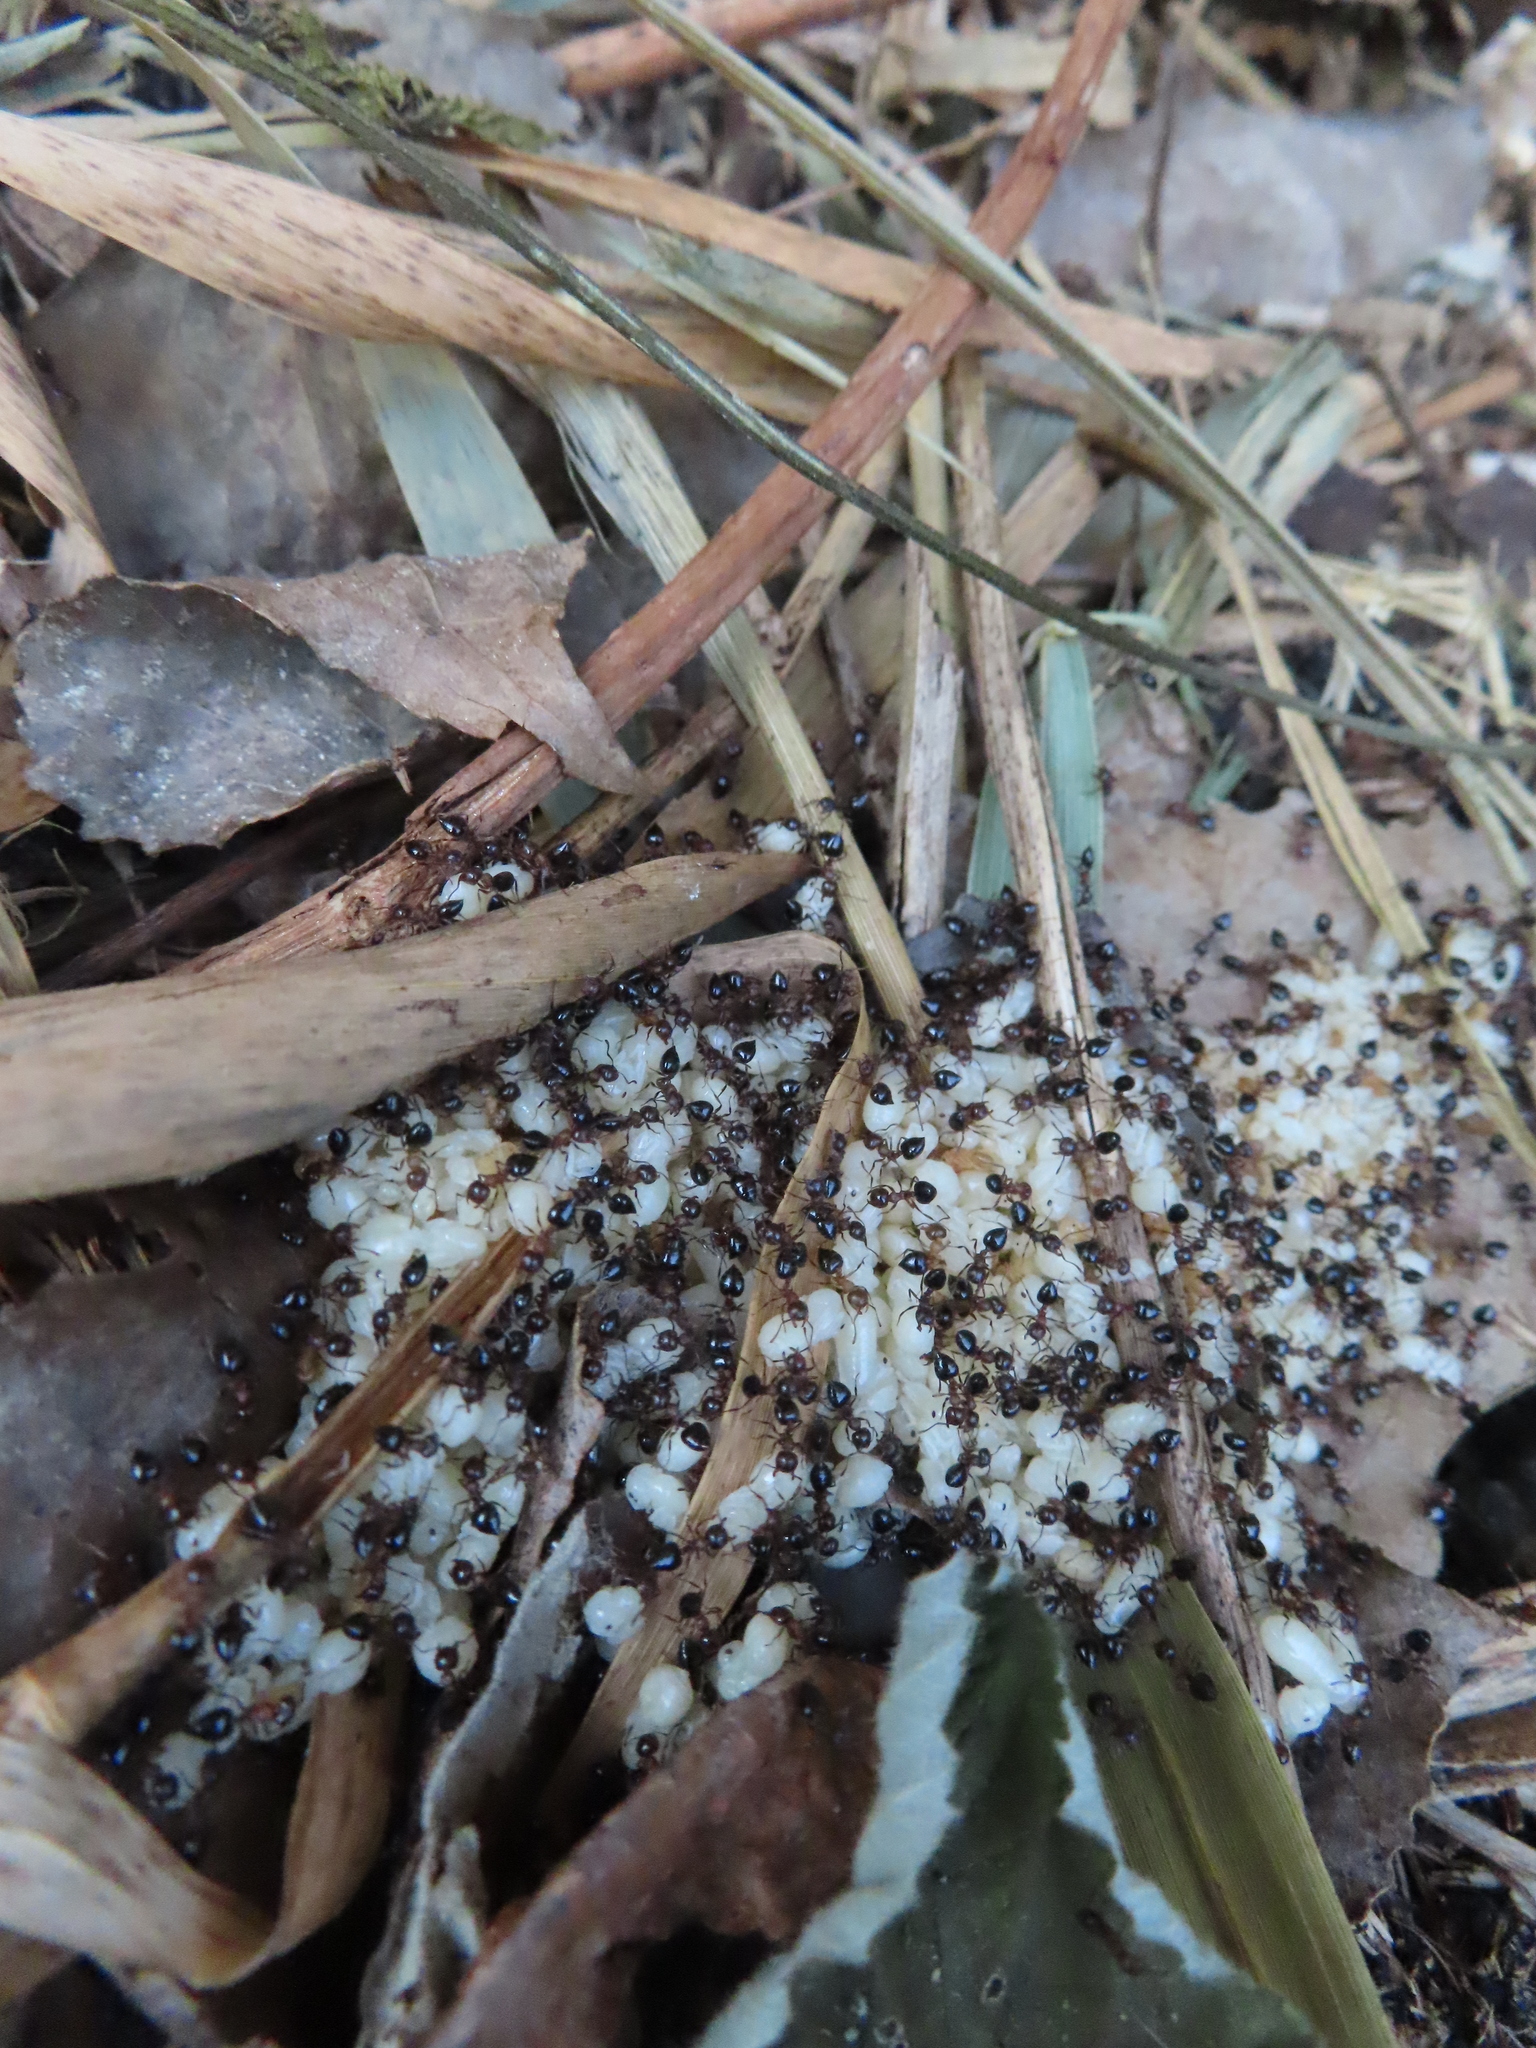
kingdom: Animalia
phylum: Arthropoda
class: Insecta
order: Hymenoptera
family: Formicidae
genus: Crematogaster
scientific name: Crematogaster cerasi
